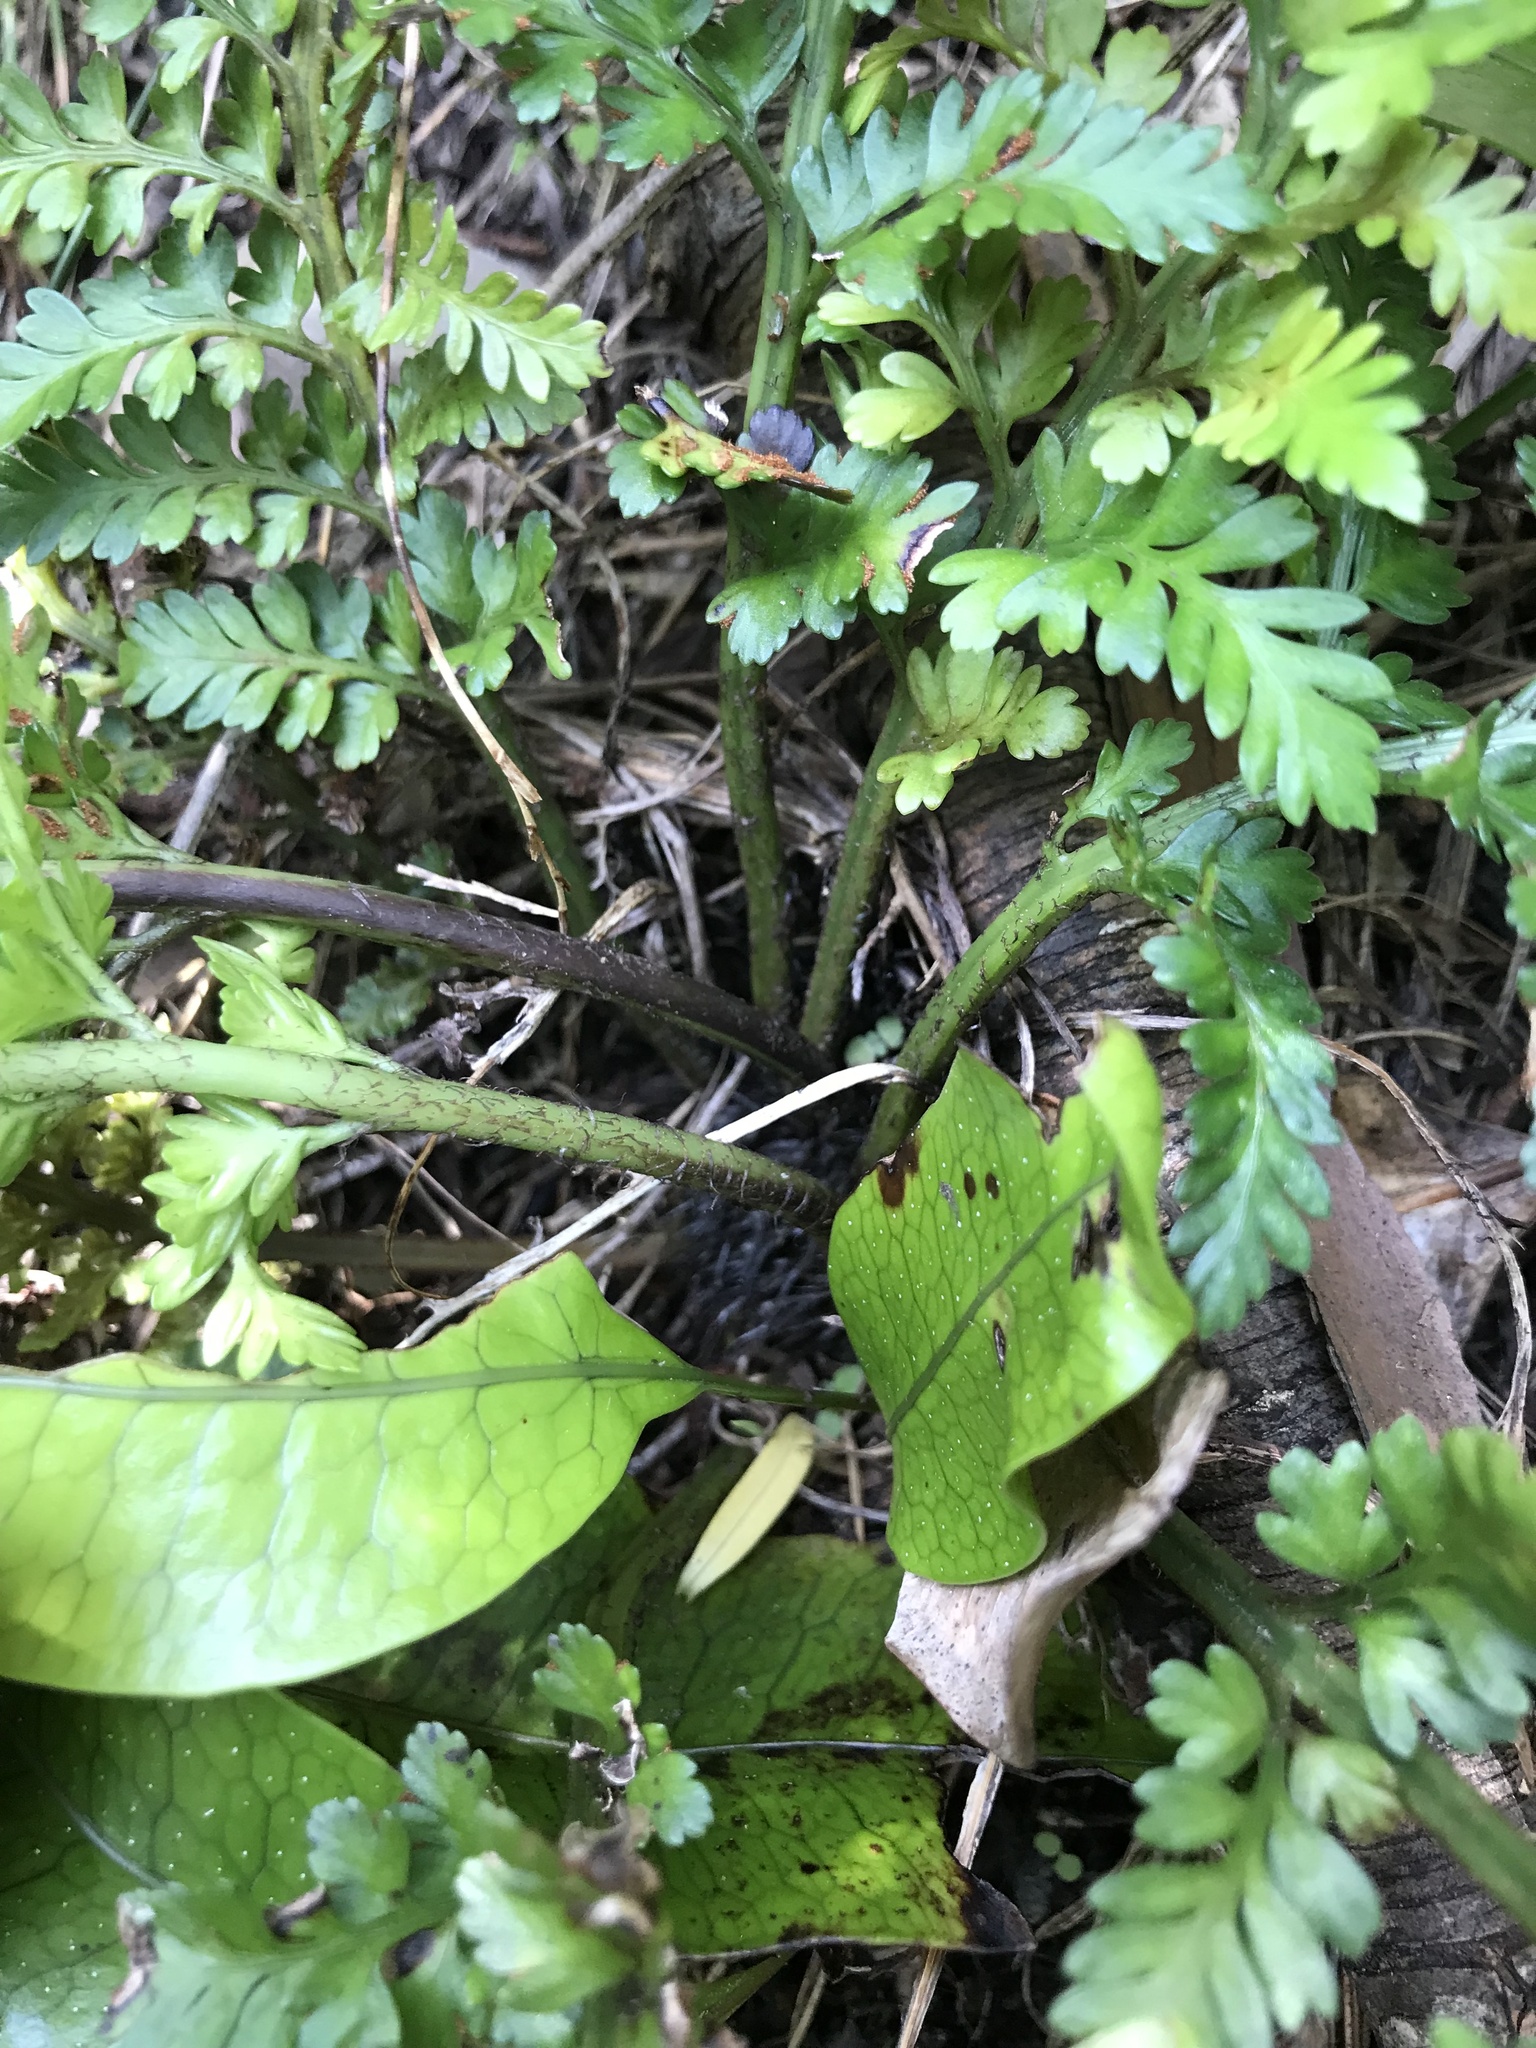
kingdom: Plantae
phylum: Tracheophyta
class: Polypodiopsida
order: Polypodiales
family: Aspleniaceae
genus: Asplenium
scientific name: Asplenium appendiculatum
